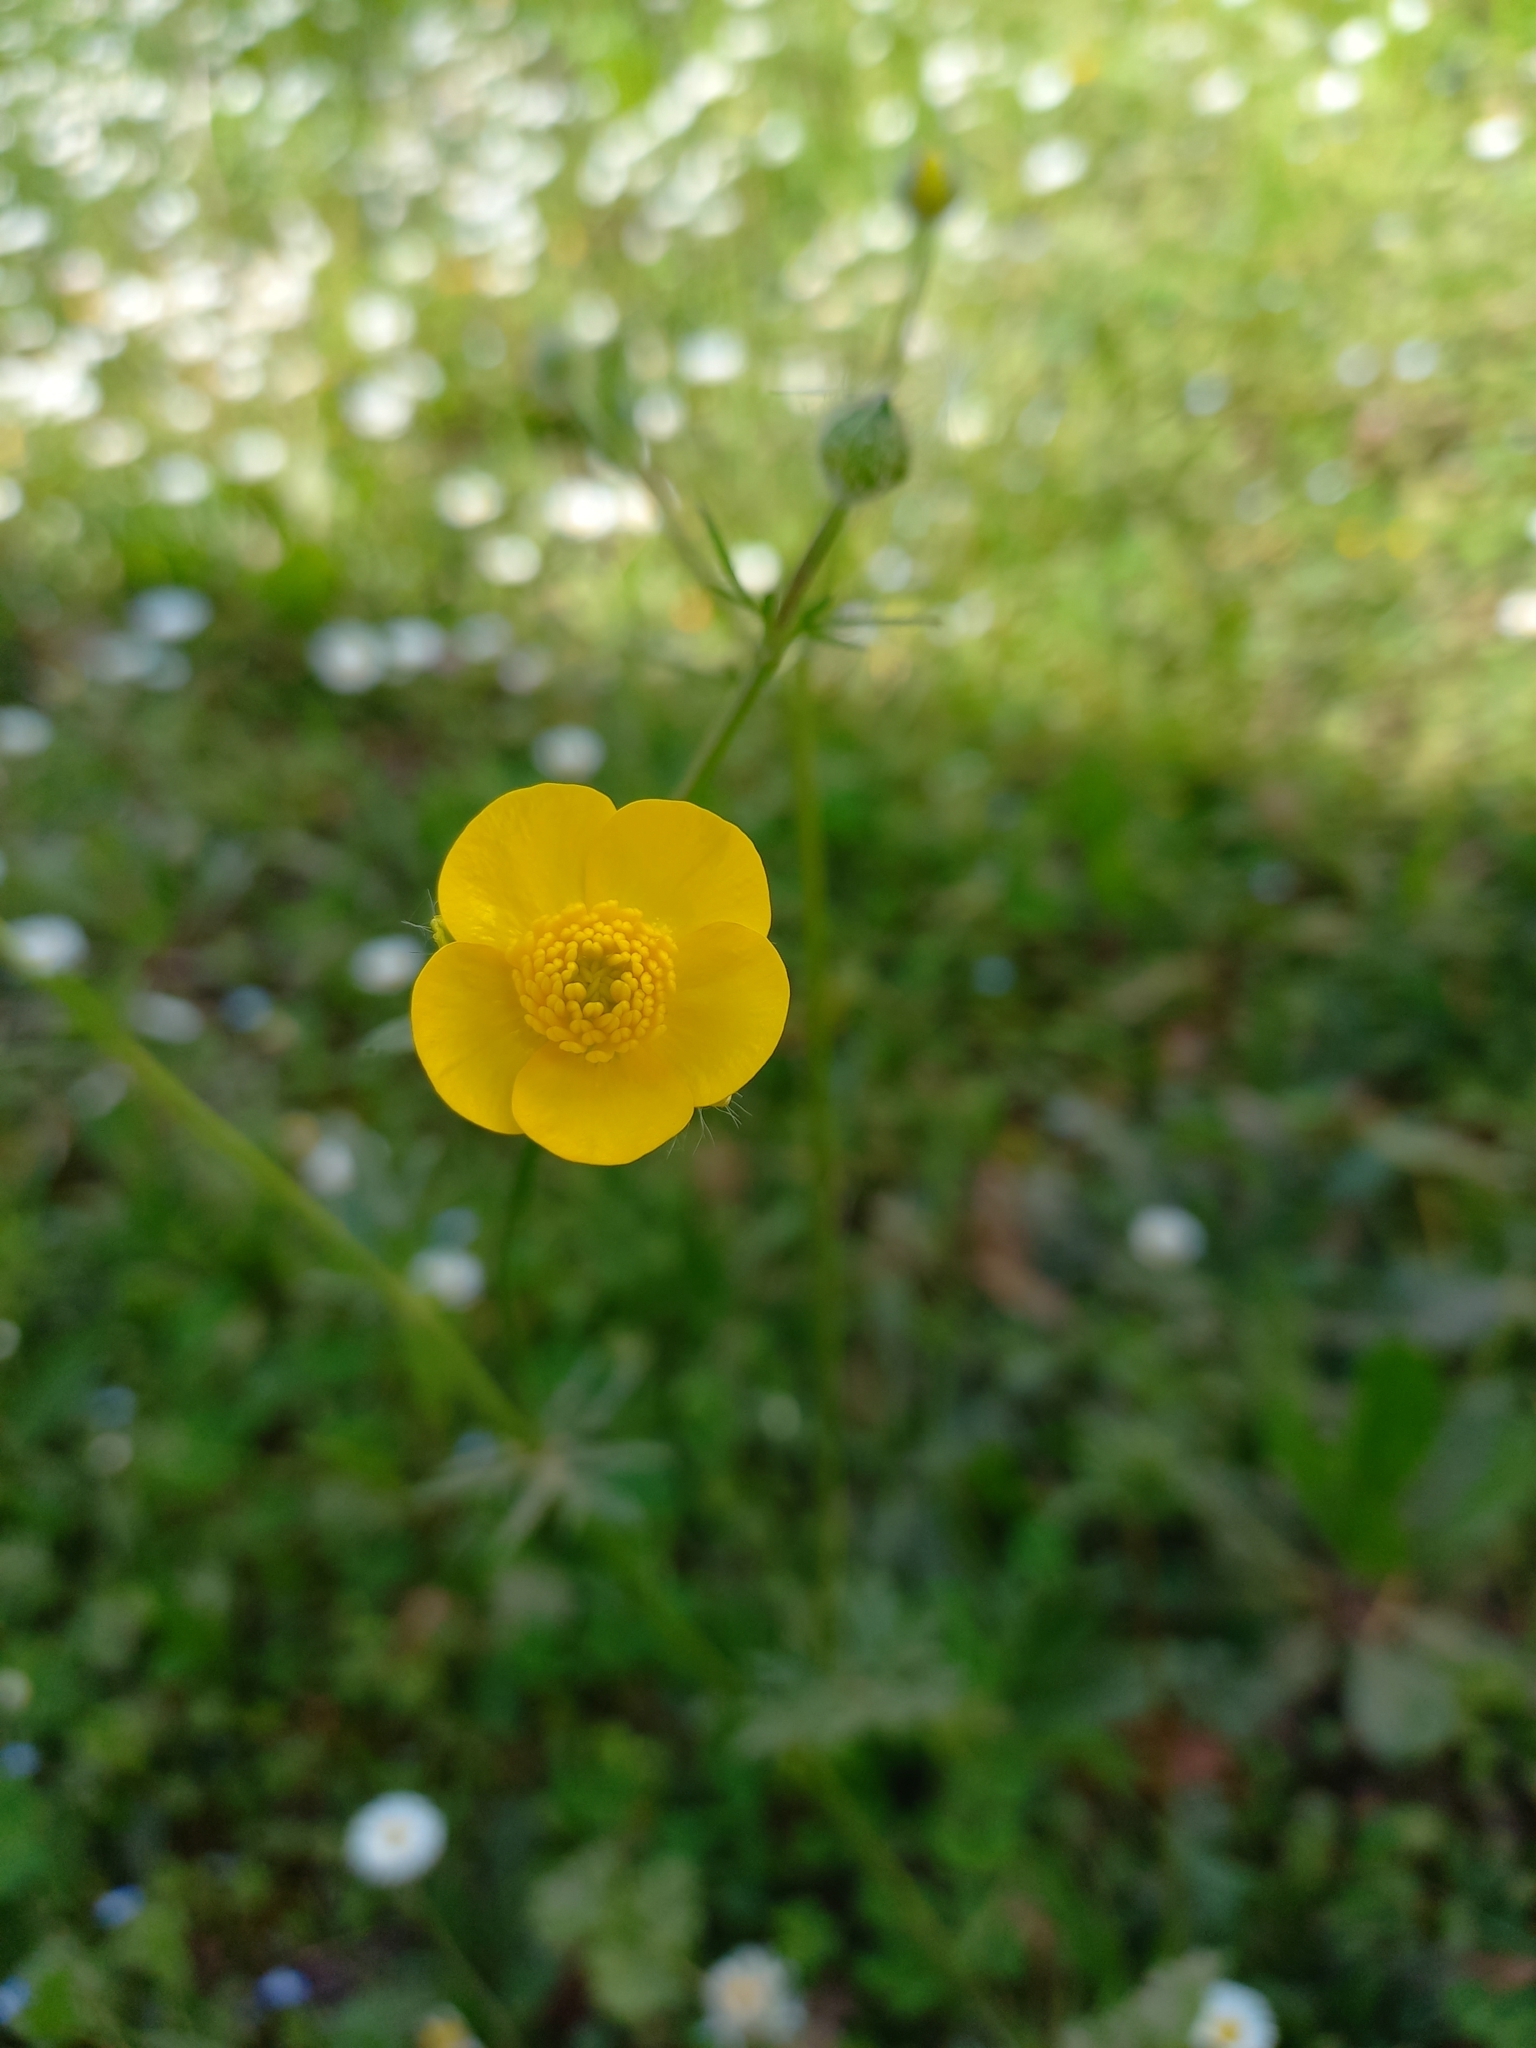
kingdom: Plantae
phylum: Tracheophyta
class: Magnoliopsida
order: Ranunculales
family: Ranunculaceae
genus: Ranunculus
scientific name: Ranunculus bulbosus
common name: Bulbous buttercup
